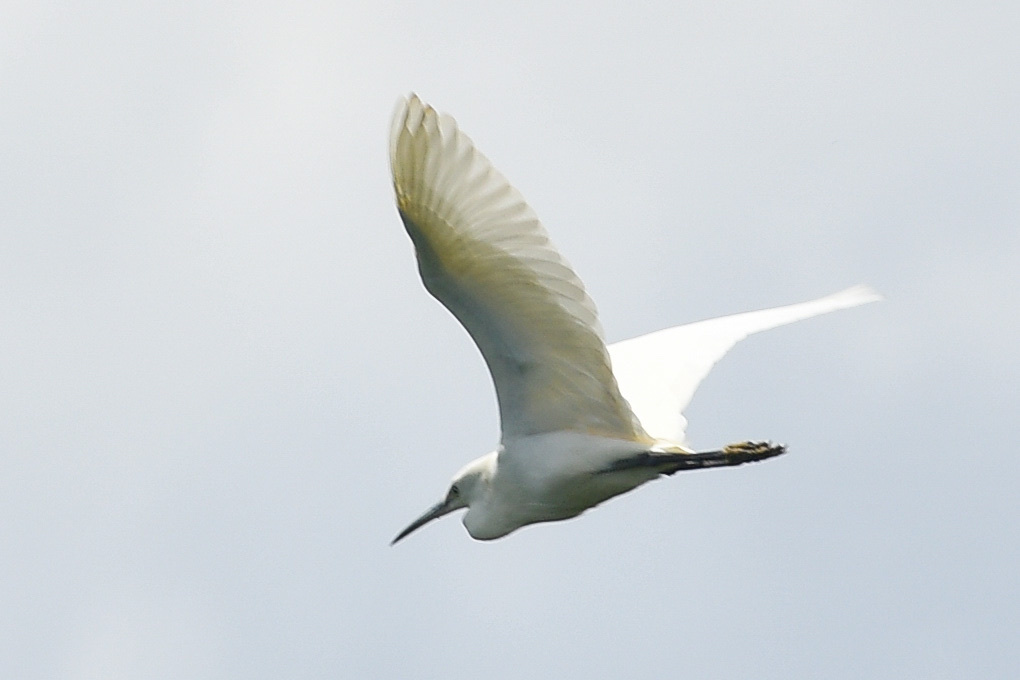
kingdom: Animalia
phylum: Chordata
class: Aves
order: Pelecaniformes
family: Ardeidae
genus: Egretta
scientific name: Egretta garzetta
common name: Little egret
